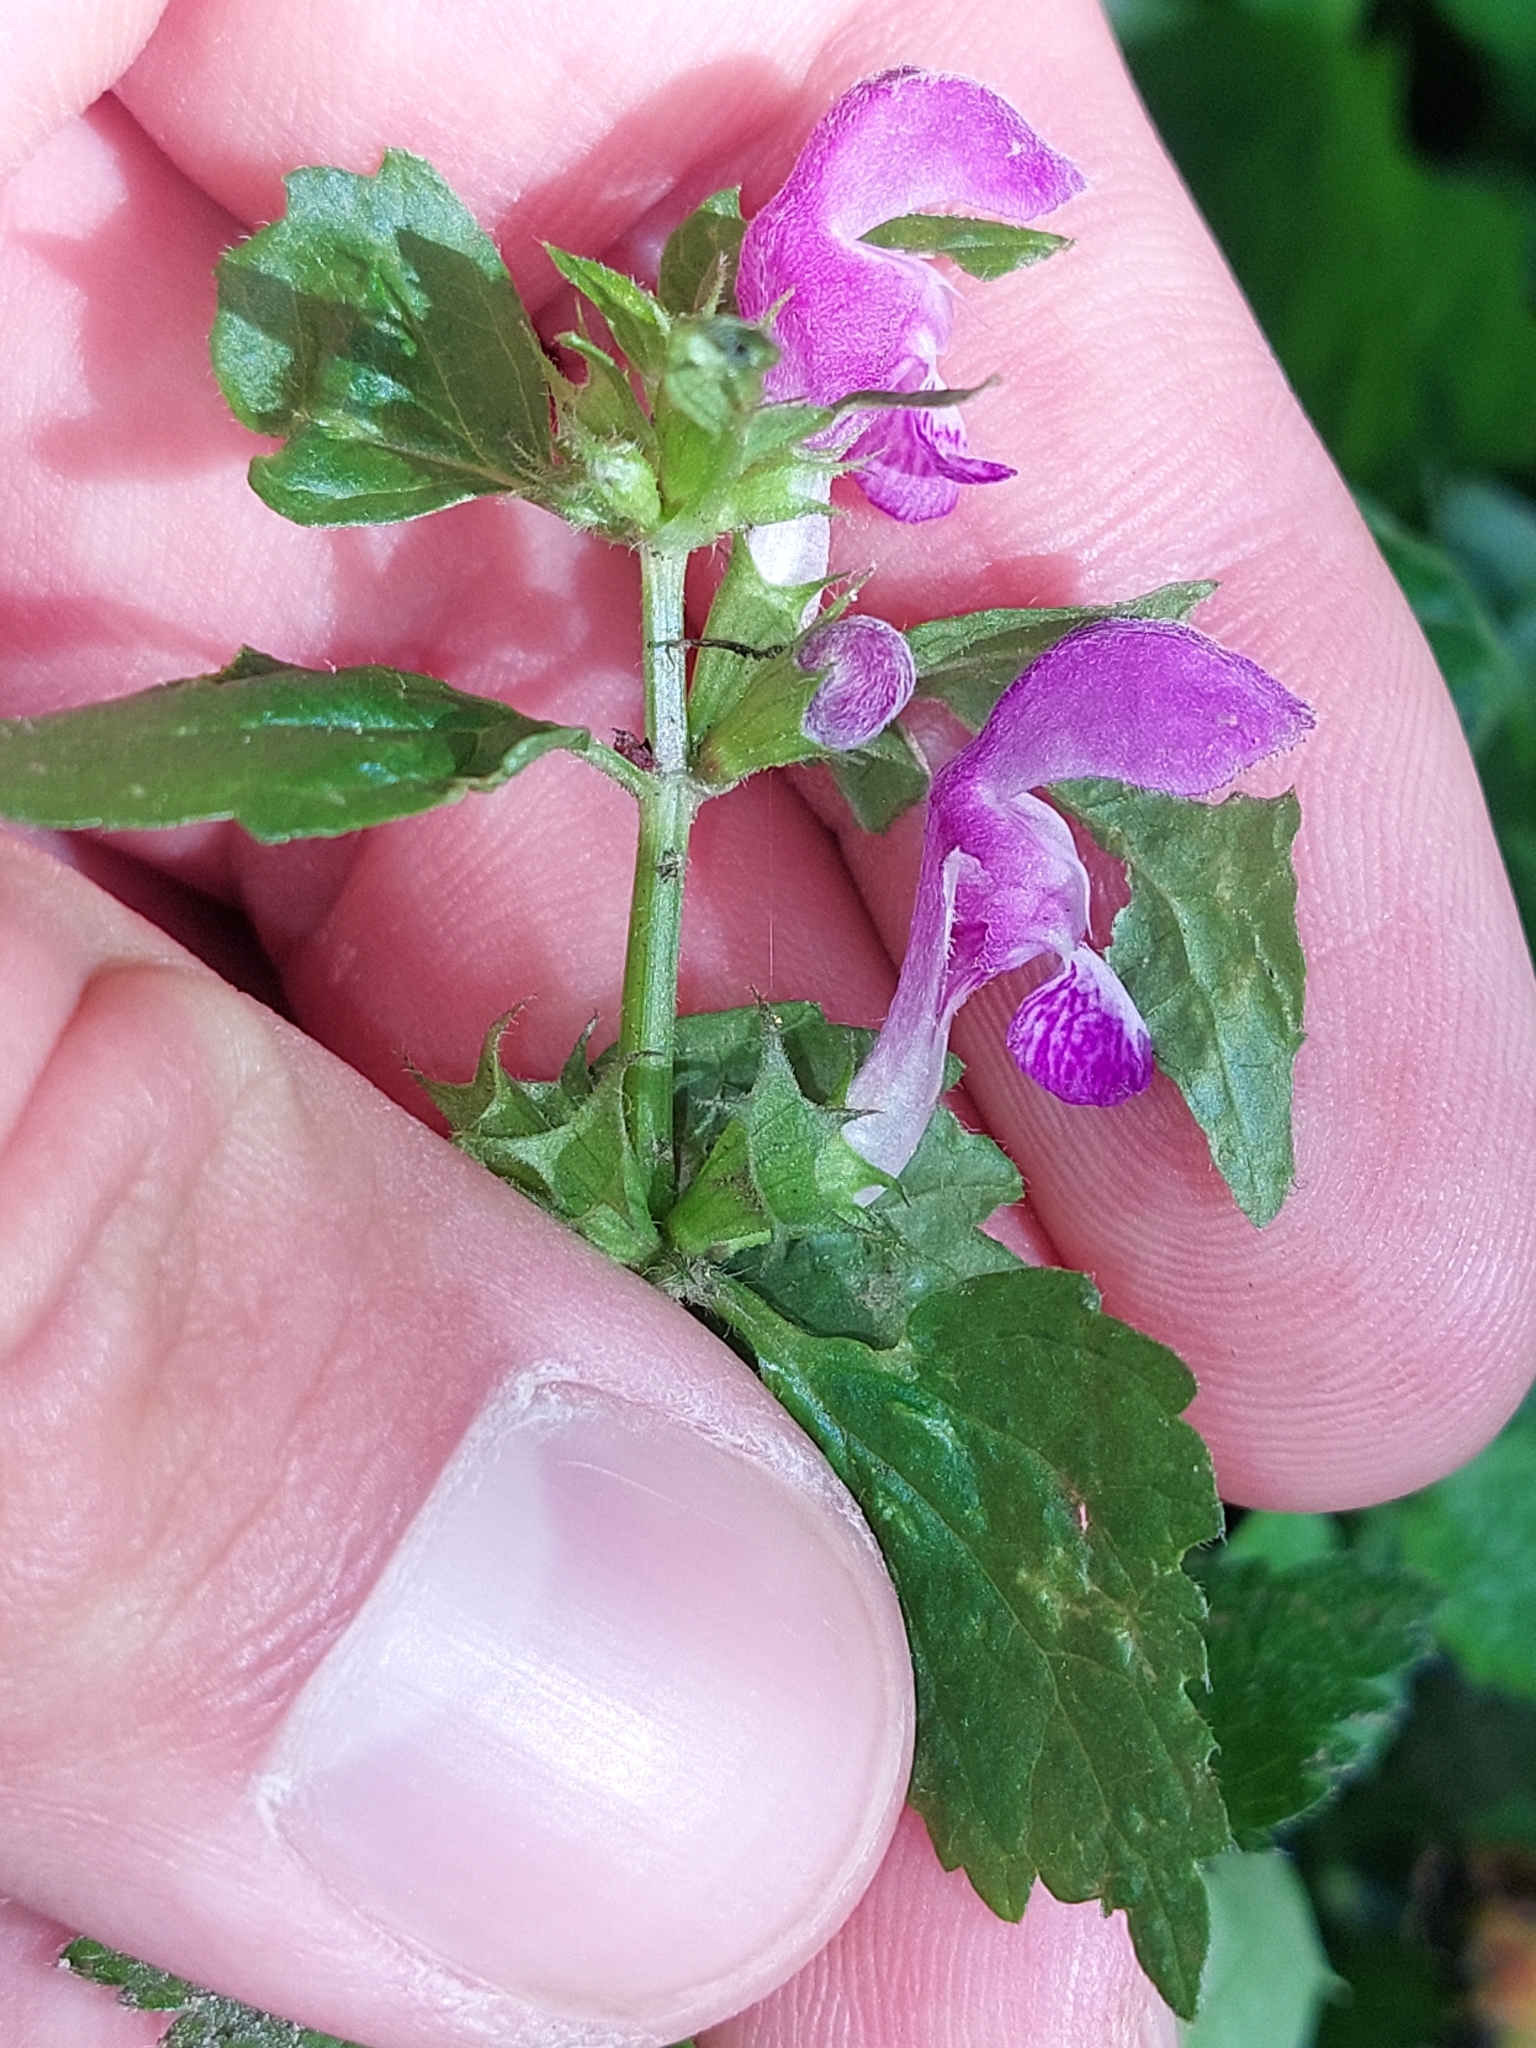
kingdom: Plantae
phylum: Tracheophyta
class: Magnoliopsida
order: Lamiales
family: Lamiaceae
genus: Lamium
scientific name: Lamium maculatum
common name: Spotted dead-nettle
